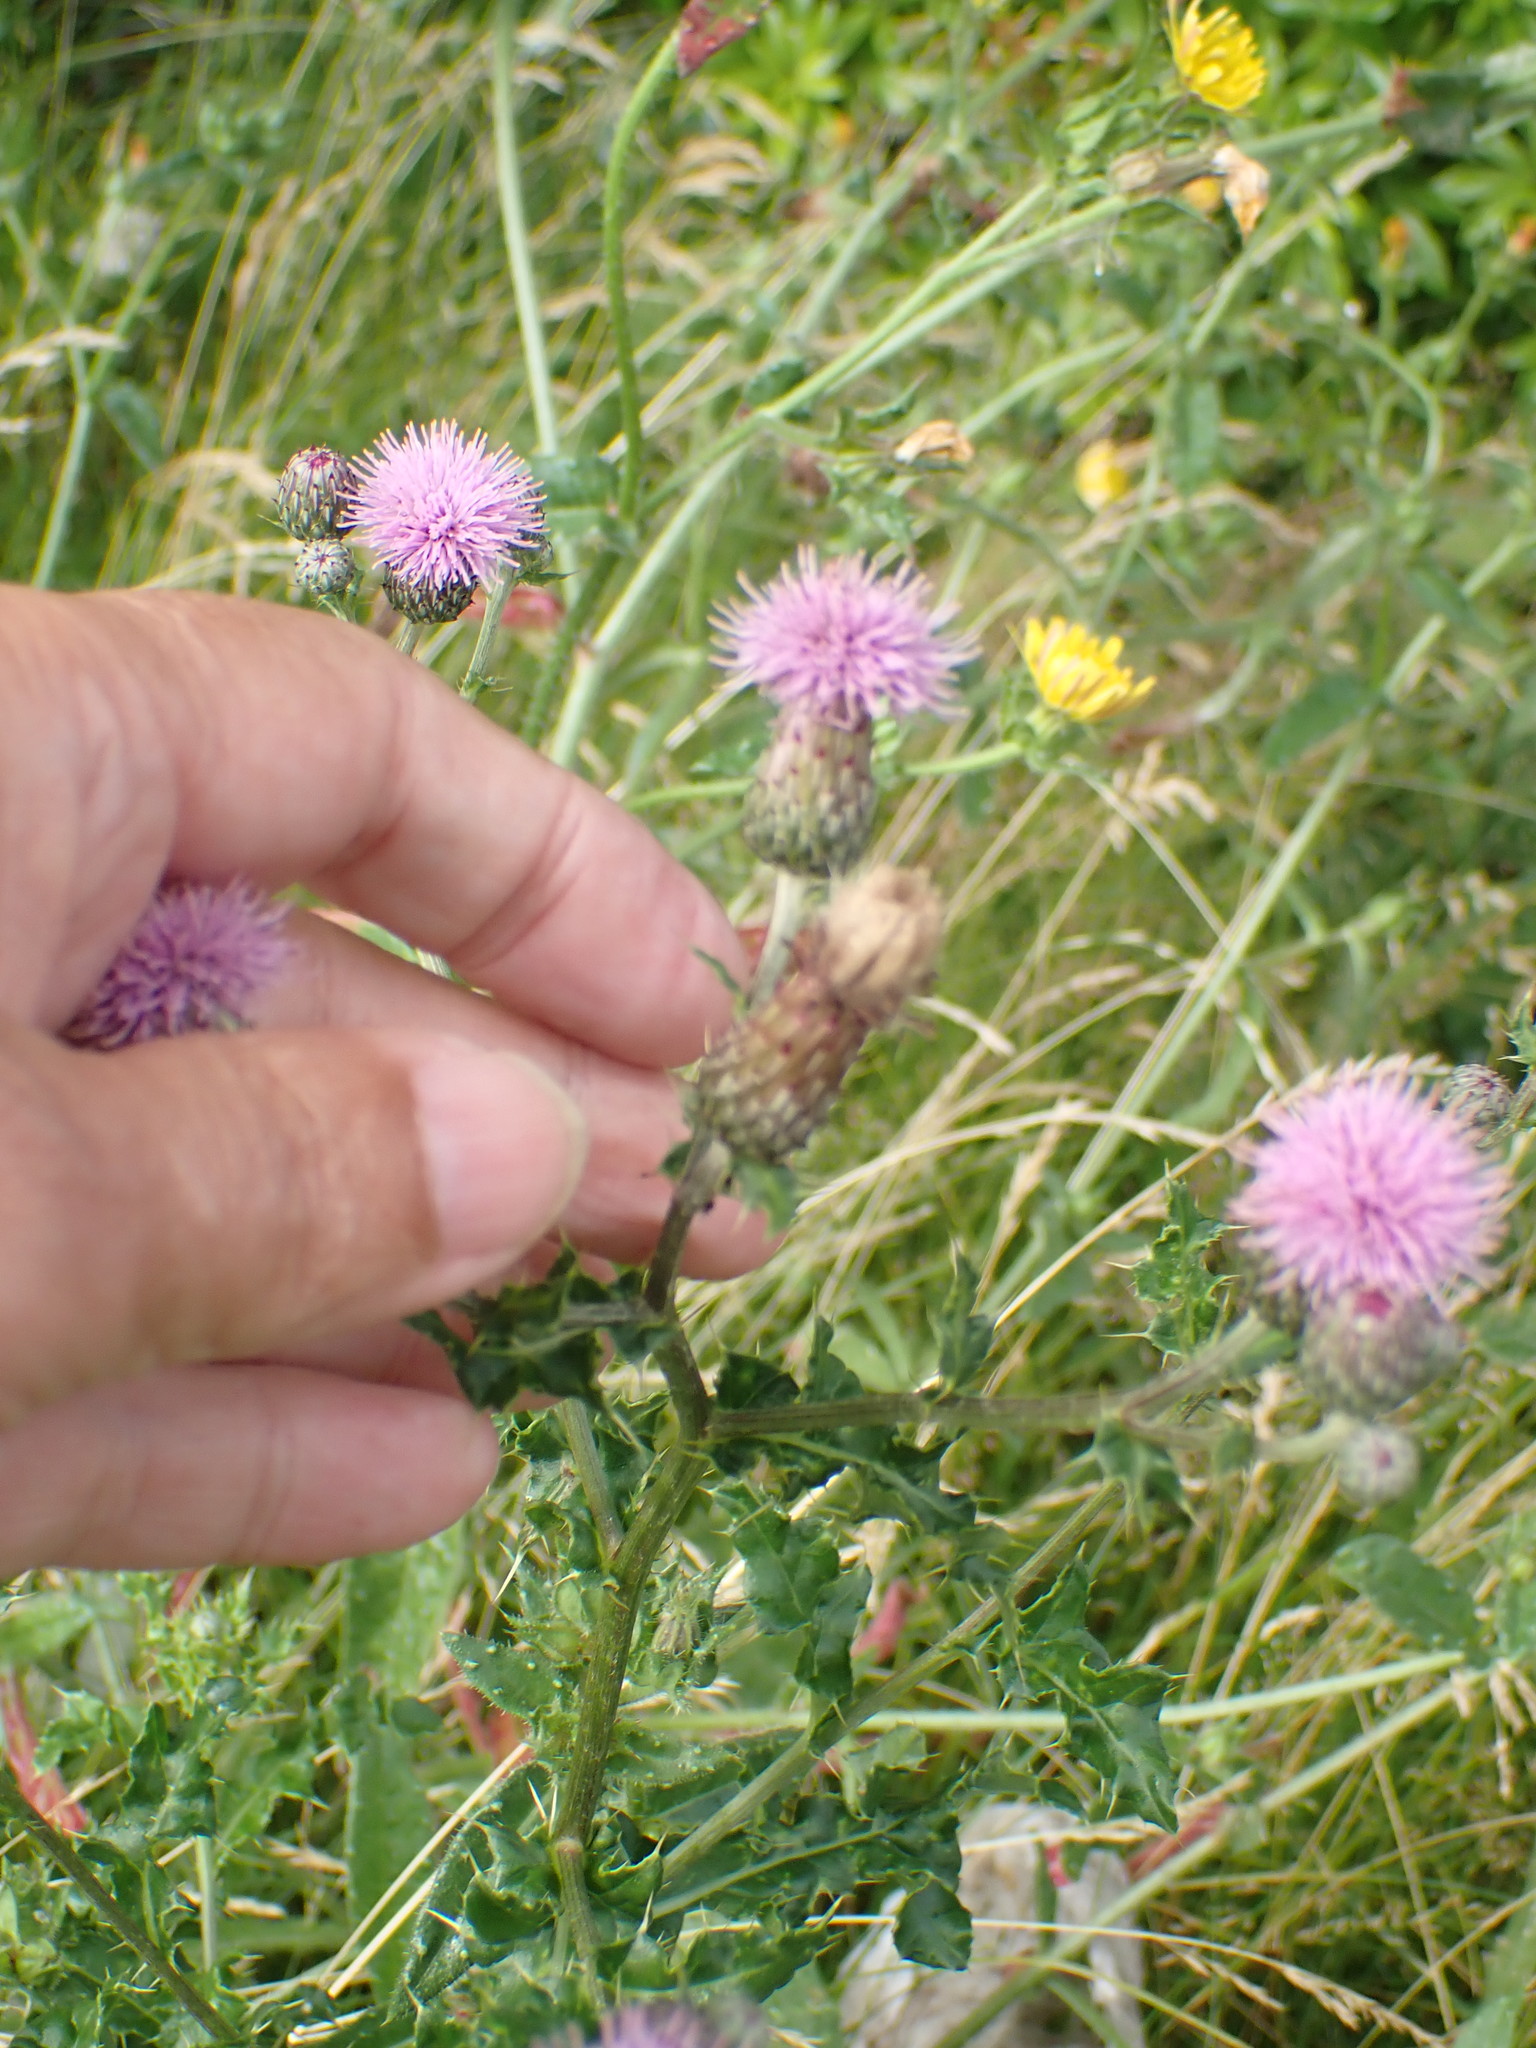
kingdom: Plantae
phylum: Tracheophyta
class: Magnoliopsida
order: Asterales
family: Asteraceae
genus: Cirsium
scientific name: Cirsium arvense
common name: Creeping thistle
